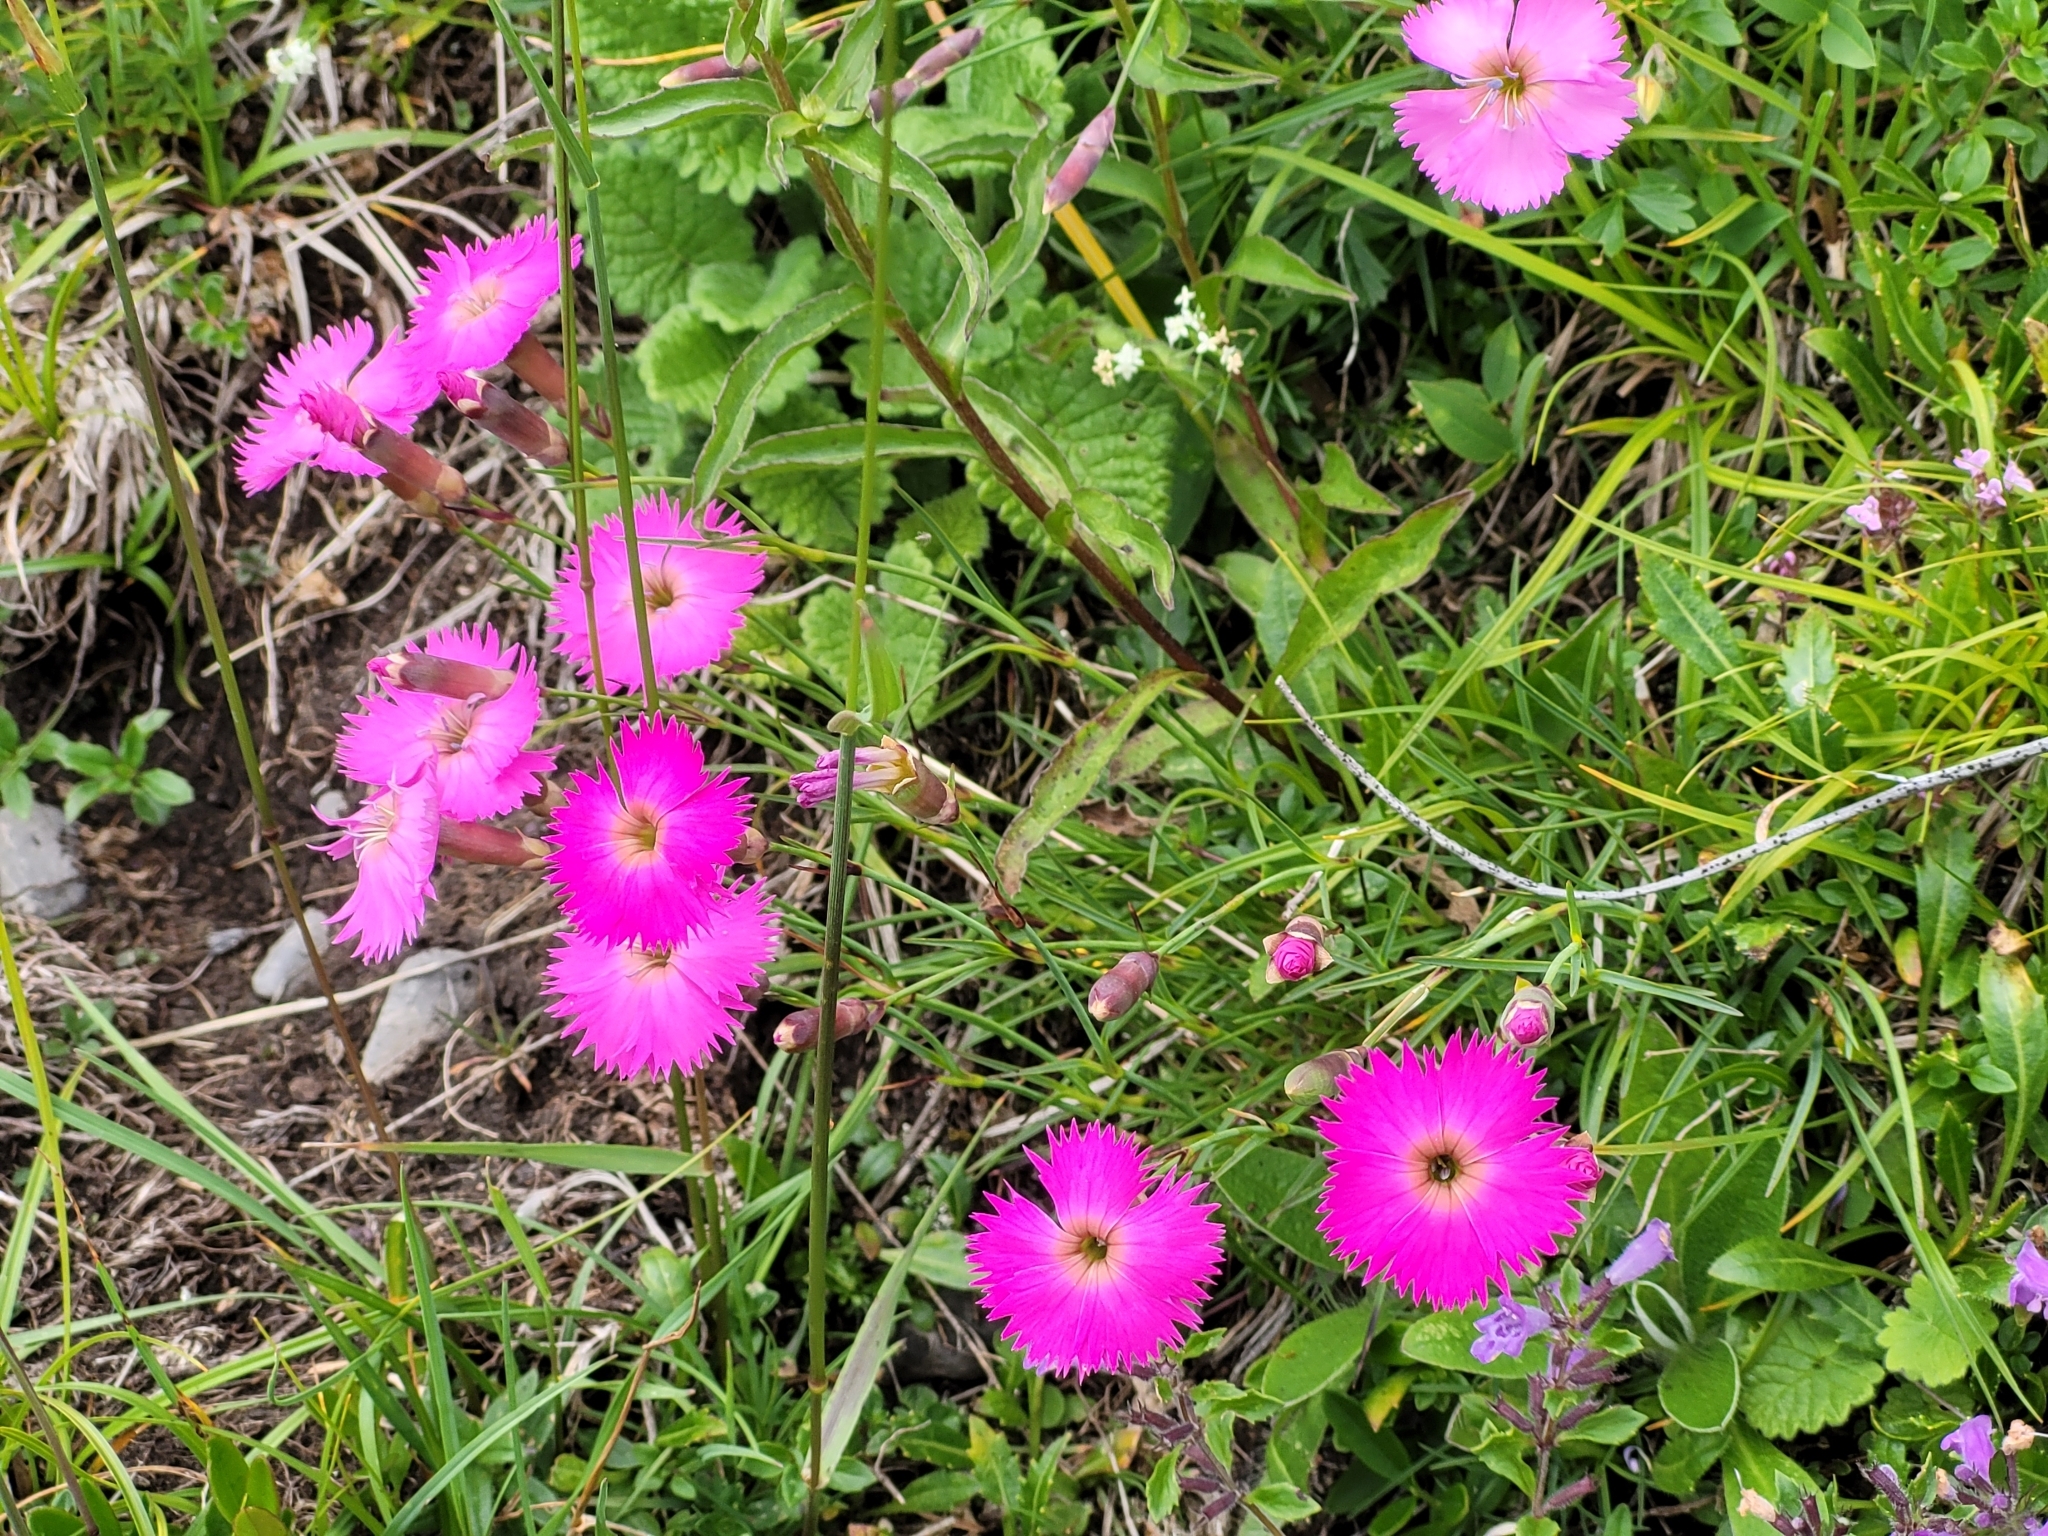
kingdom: Plantae
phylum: Tracheophyta
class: Magnoliopsida
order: Caryophyllales
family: Caryophyllaceae
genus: Dianthus
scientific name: Dianthus sylvestris
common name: Wood pink
